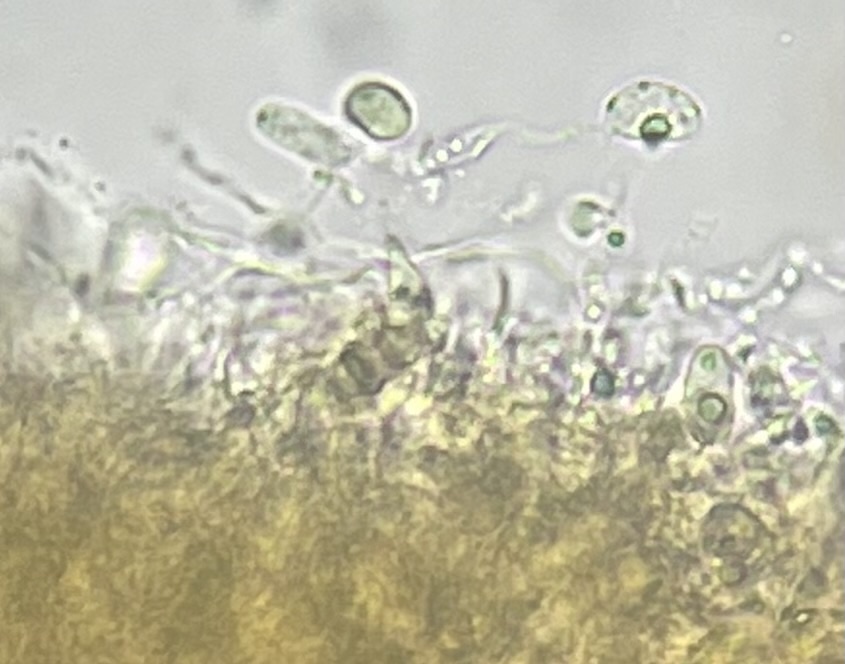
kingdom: Fungi
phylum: Basidiomycota
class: Dacrymycetes
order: Dacrymycetales
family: Dacrymycetaceae
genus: Dacryopinax
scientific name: Dacryopinax elegans
